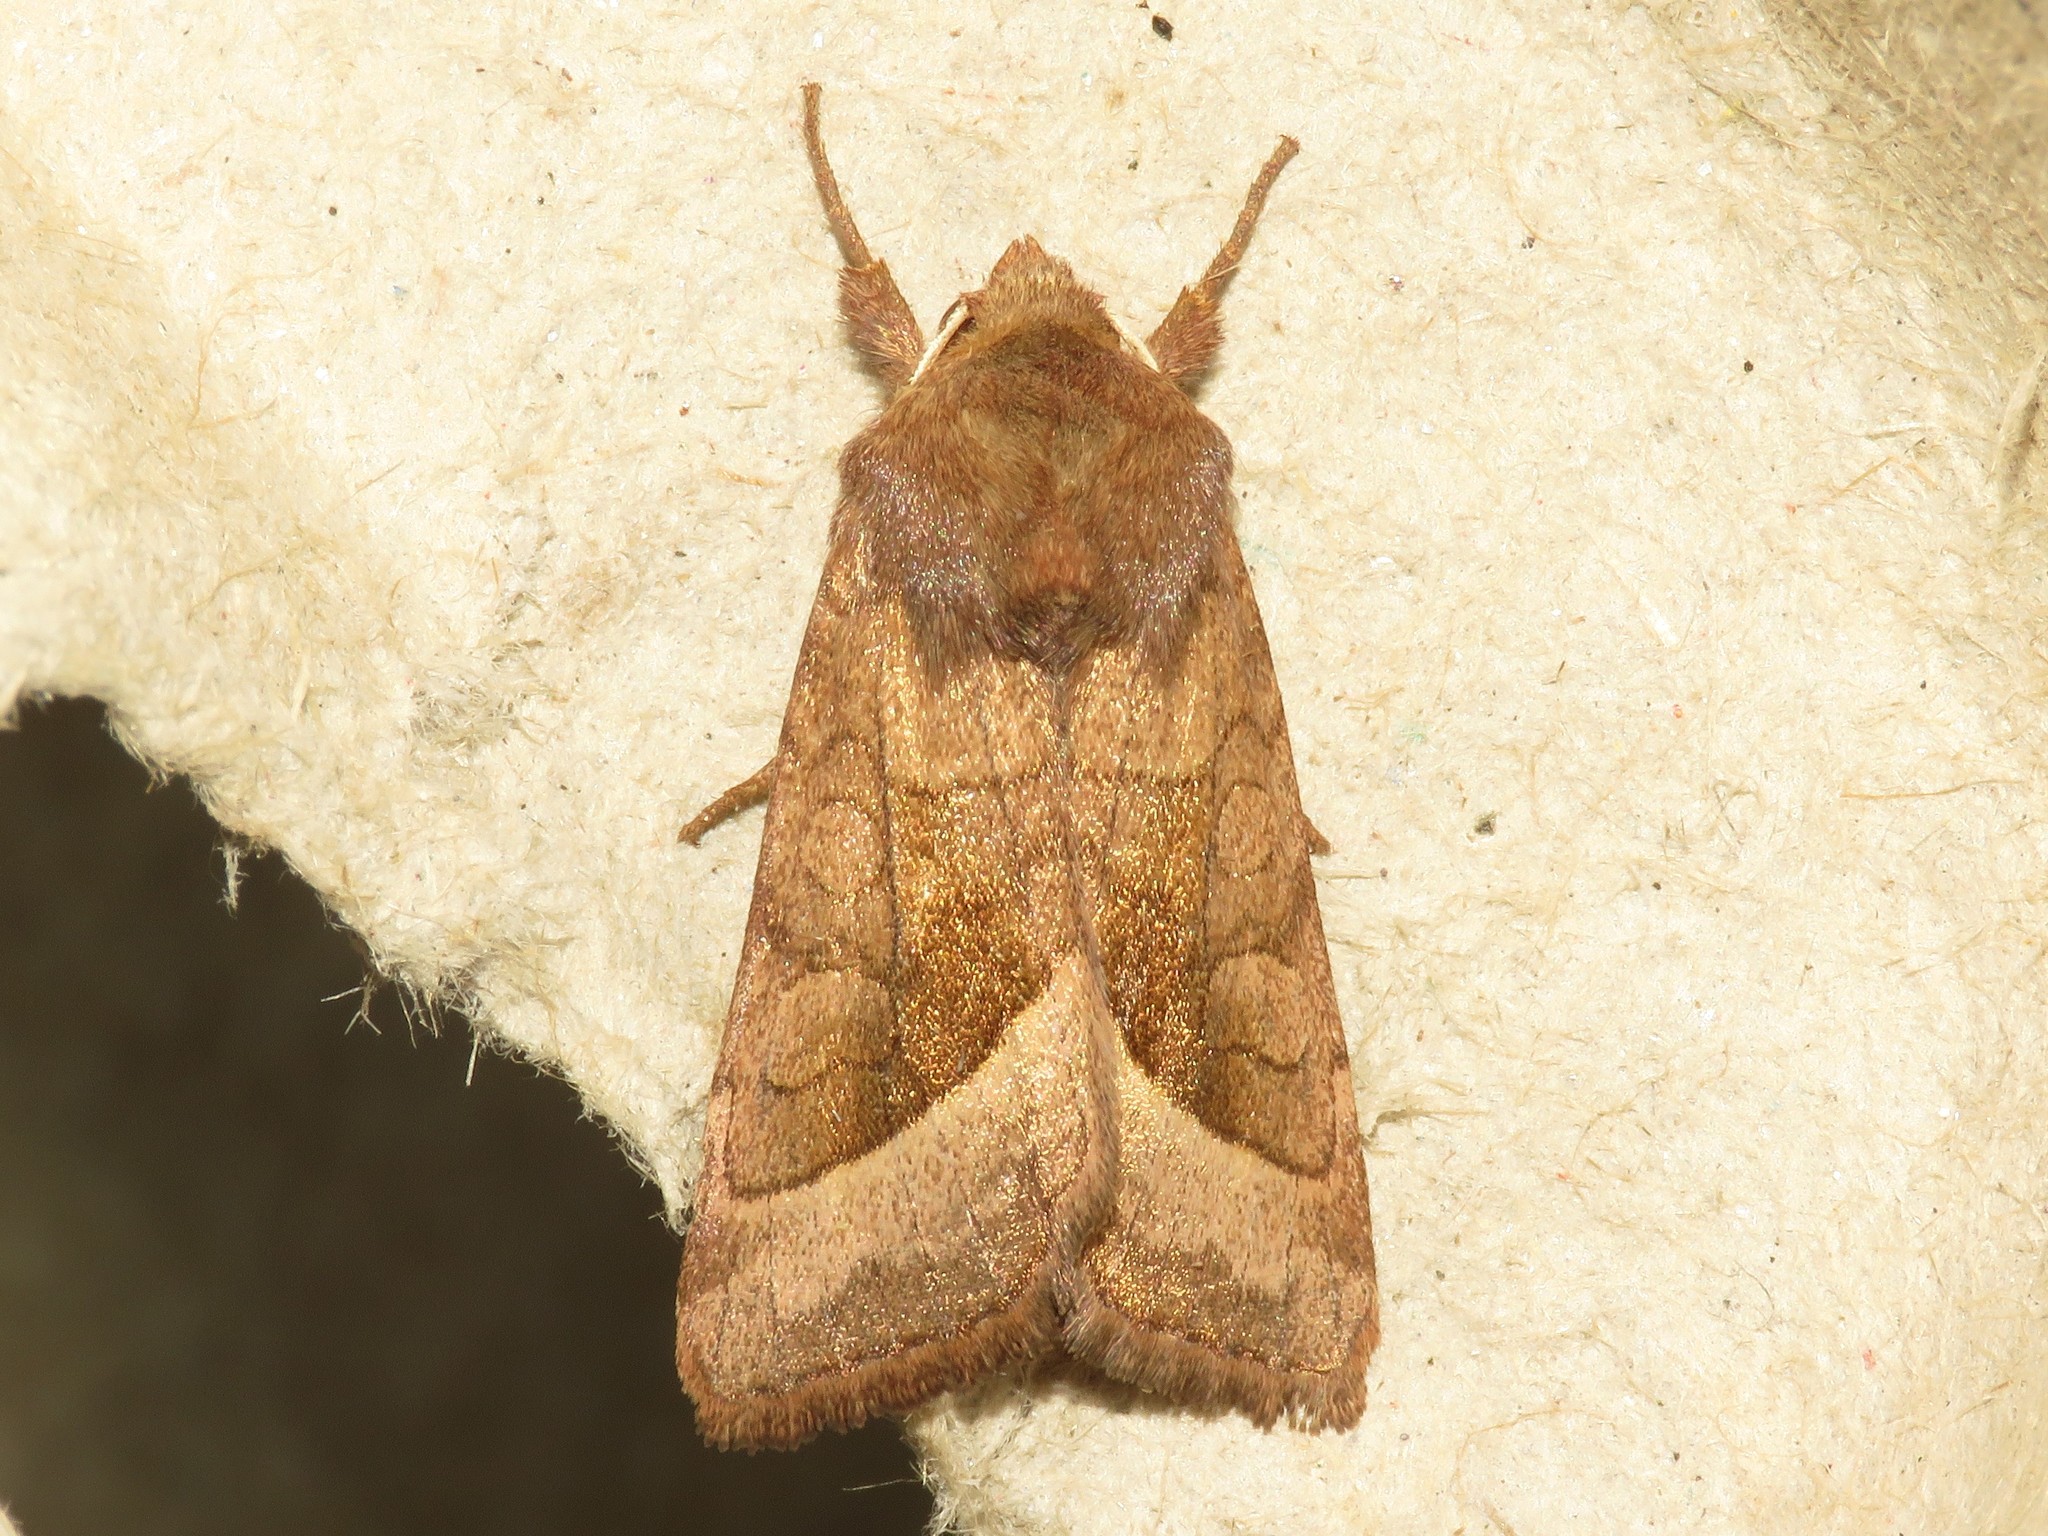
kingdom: Animalia
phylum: Arthropoda
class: Insecta
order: Lepidoptera
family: Noctuidae
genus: Hydraecia
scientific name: Hydraecia micacea
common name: Rosy rustic
